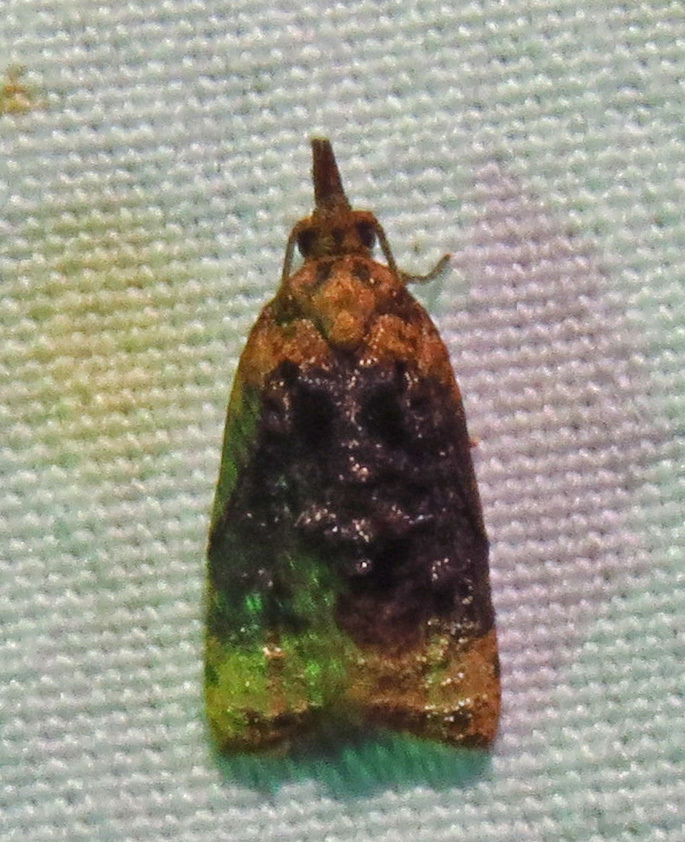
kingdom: Animalia
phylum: Arthropoda
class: Insecta
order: Lepidoptera
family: Tortricidae
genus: Platynota
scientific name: Platynota flavedana
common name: Black-shaded platynota moth
